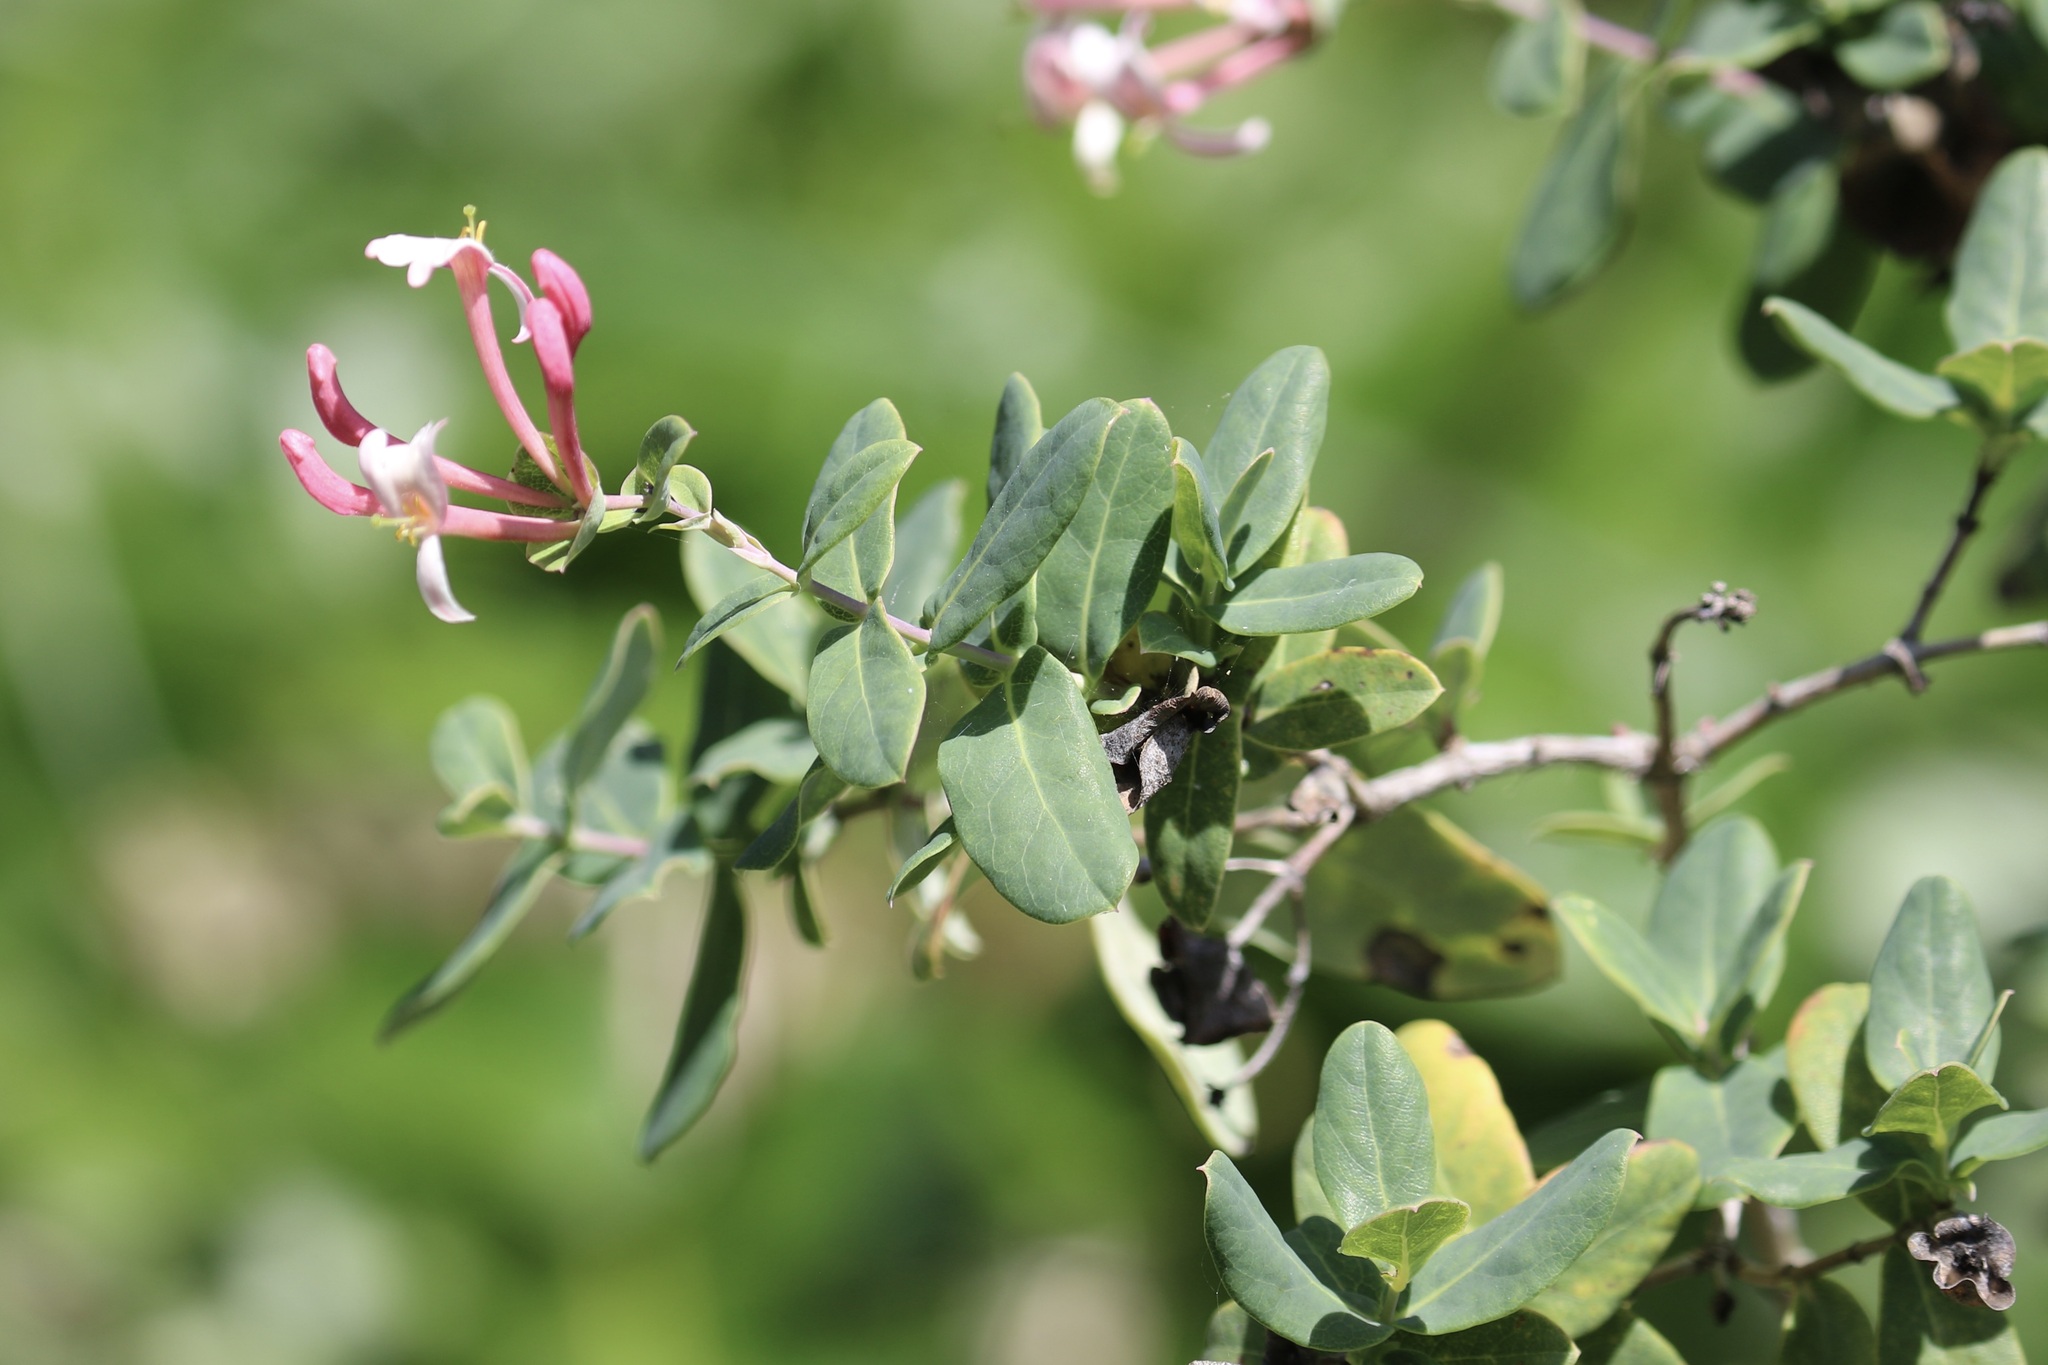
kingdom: Plantae
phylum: Tracheophyta
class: Magnoliopsida
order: Dipsacales
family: Caprifoliaceae
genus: Lonicera
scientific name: Lonicera implexa
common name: Minorca honeysuckle
